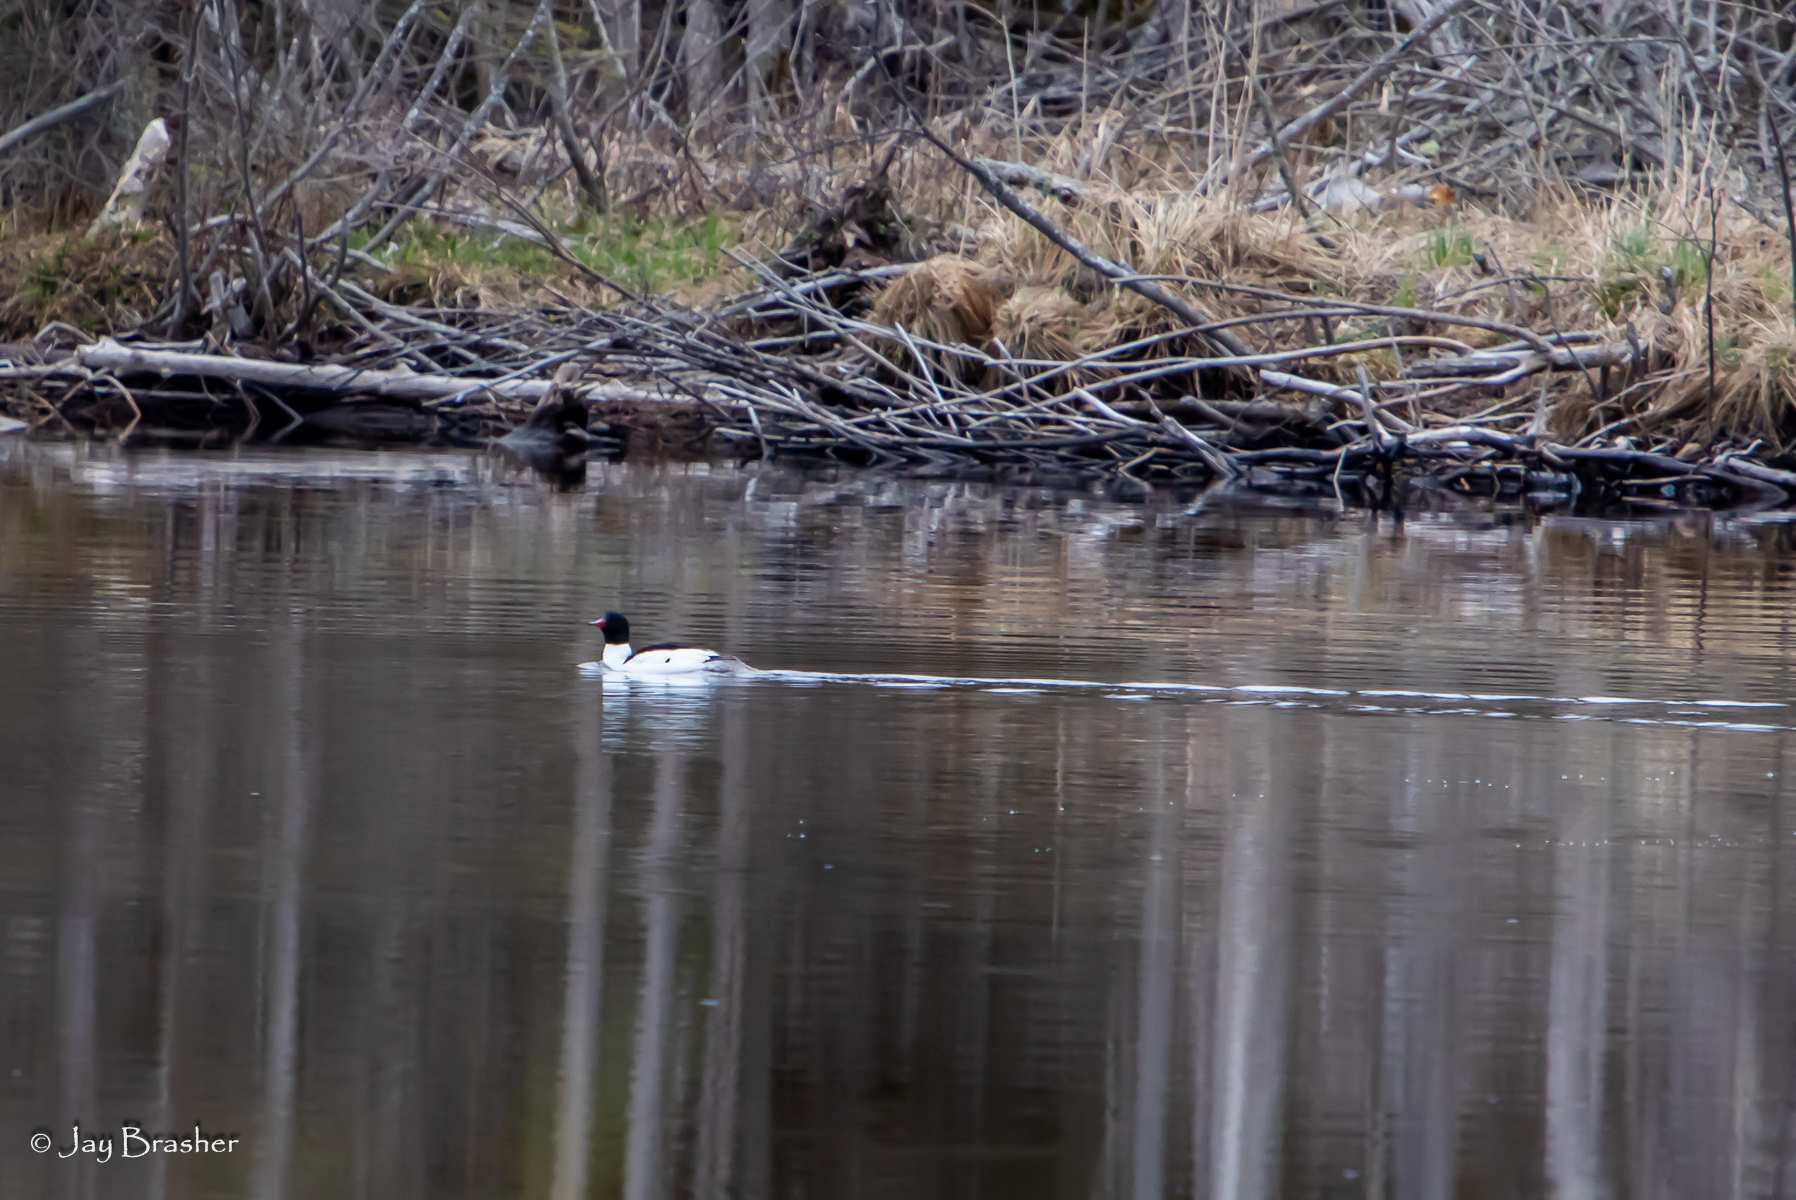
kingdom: Animalia
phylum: Chordata
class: Aves
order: Anseriformes
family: Anatidae
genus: Mergus
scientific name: Mergus merganser
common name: Common merganser
